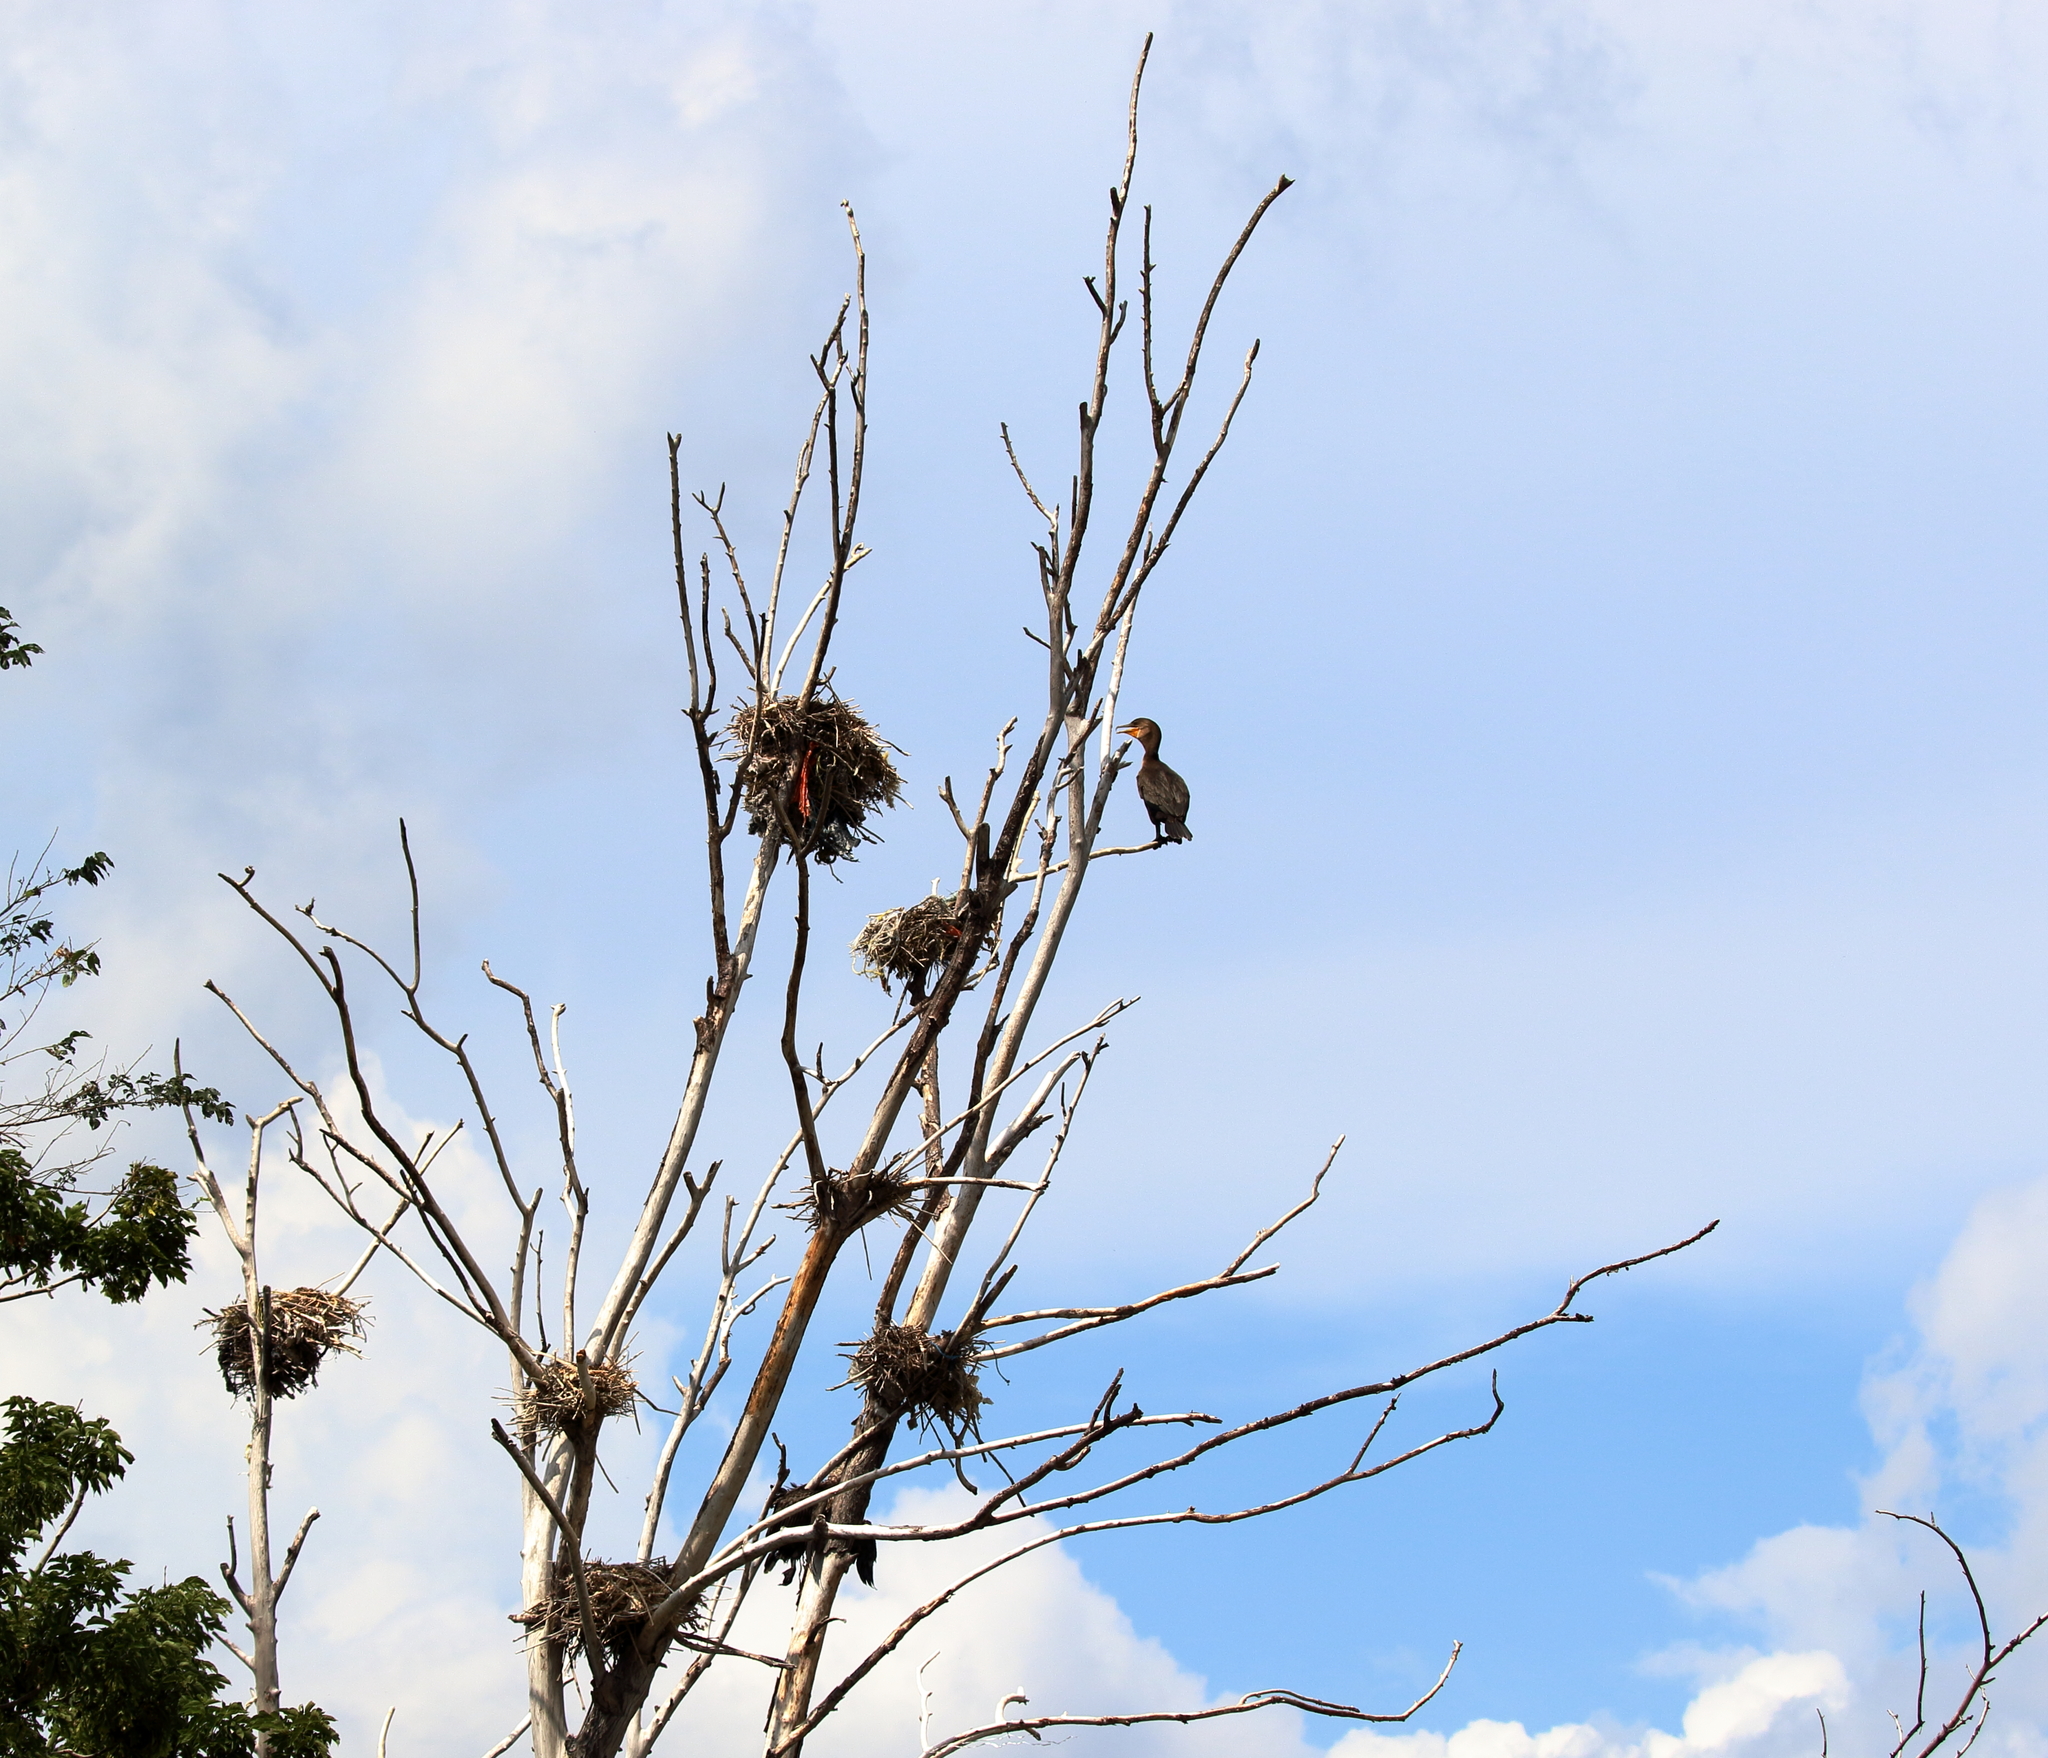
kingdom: Animalia
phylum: Chordata
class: Aves
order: Suliformes
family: Phalacrocoracidae
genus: Phalacrocorax
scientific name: Phalacrocorax auritus
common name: Double-crested cormorant
